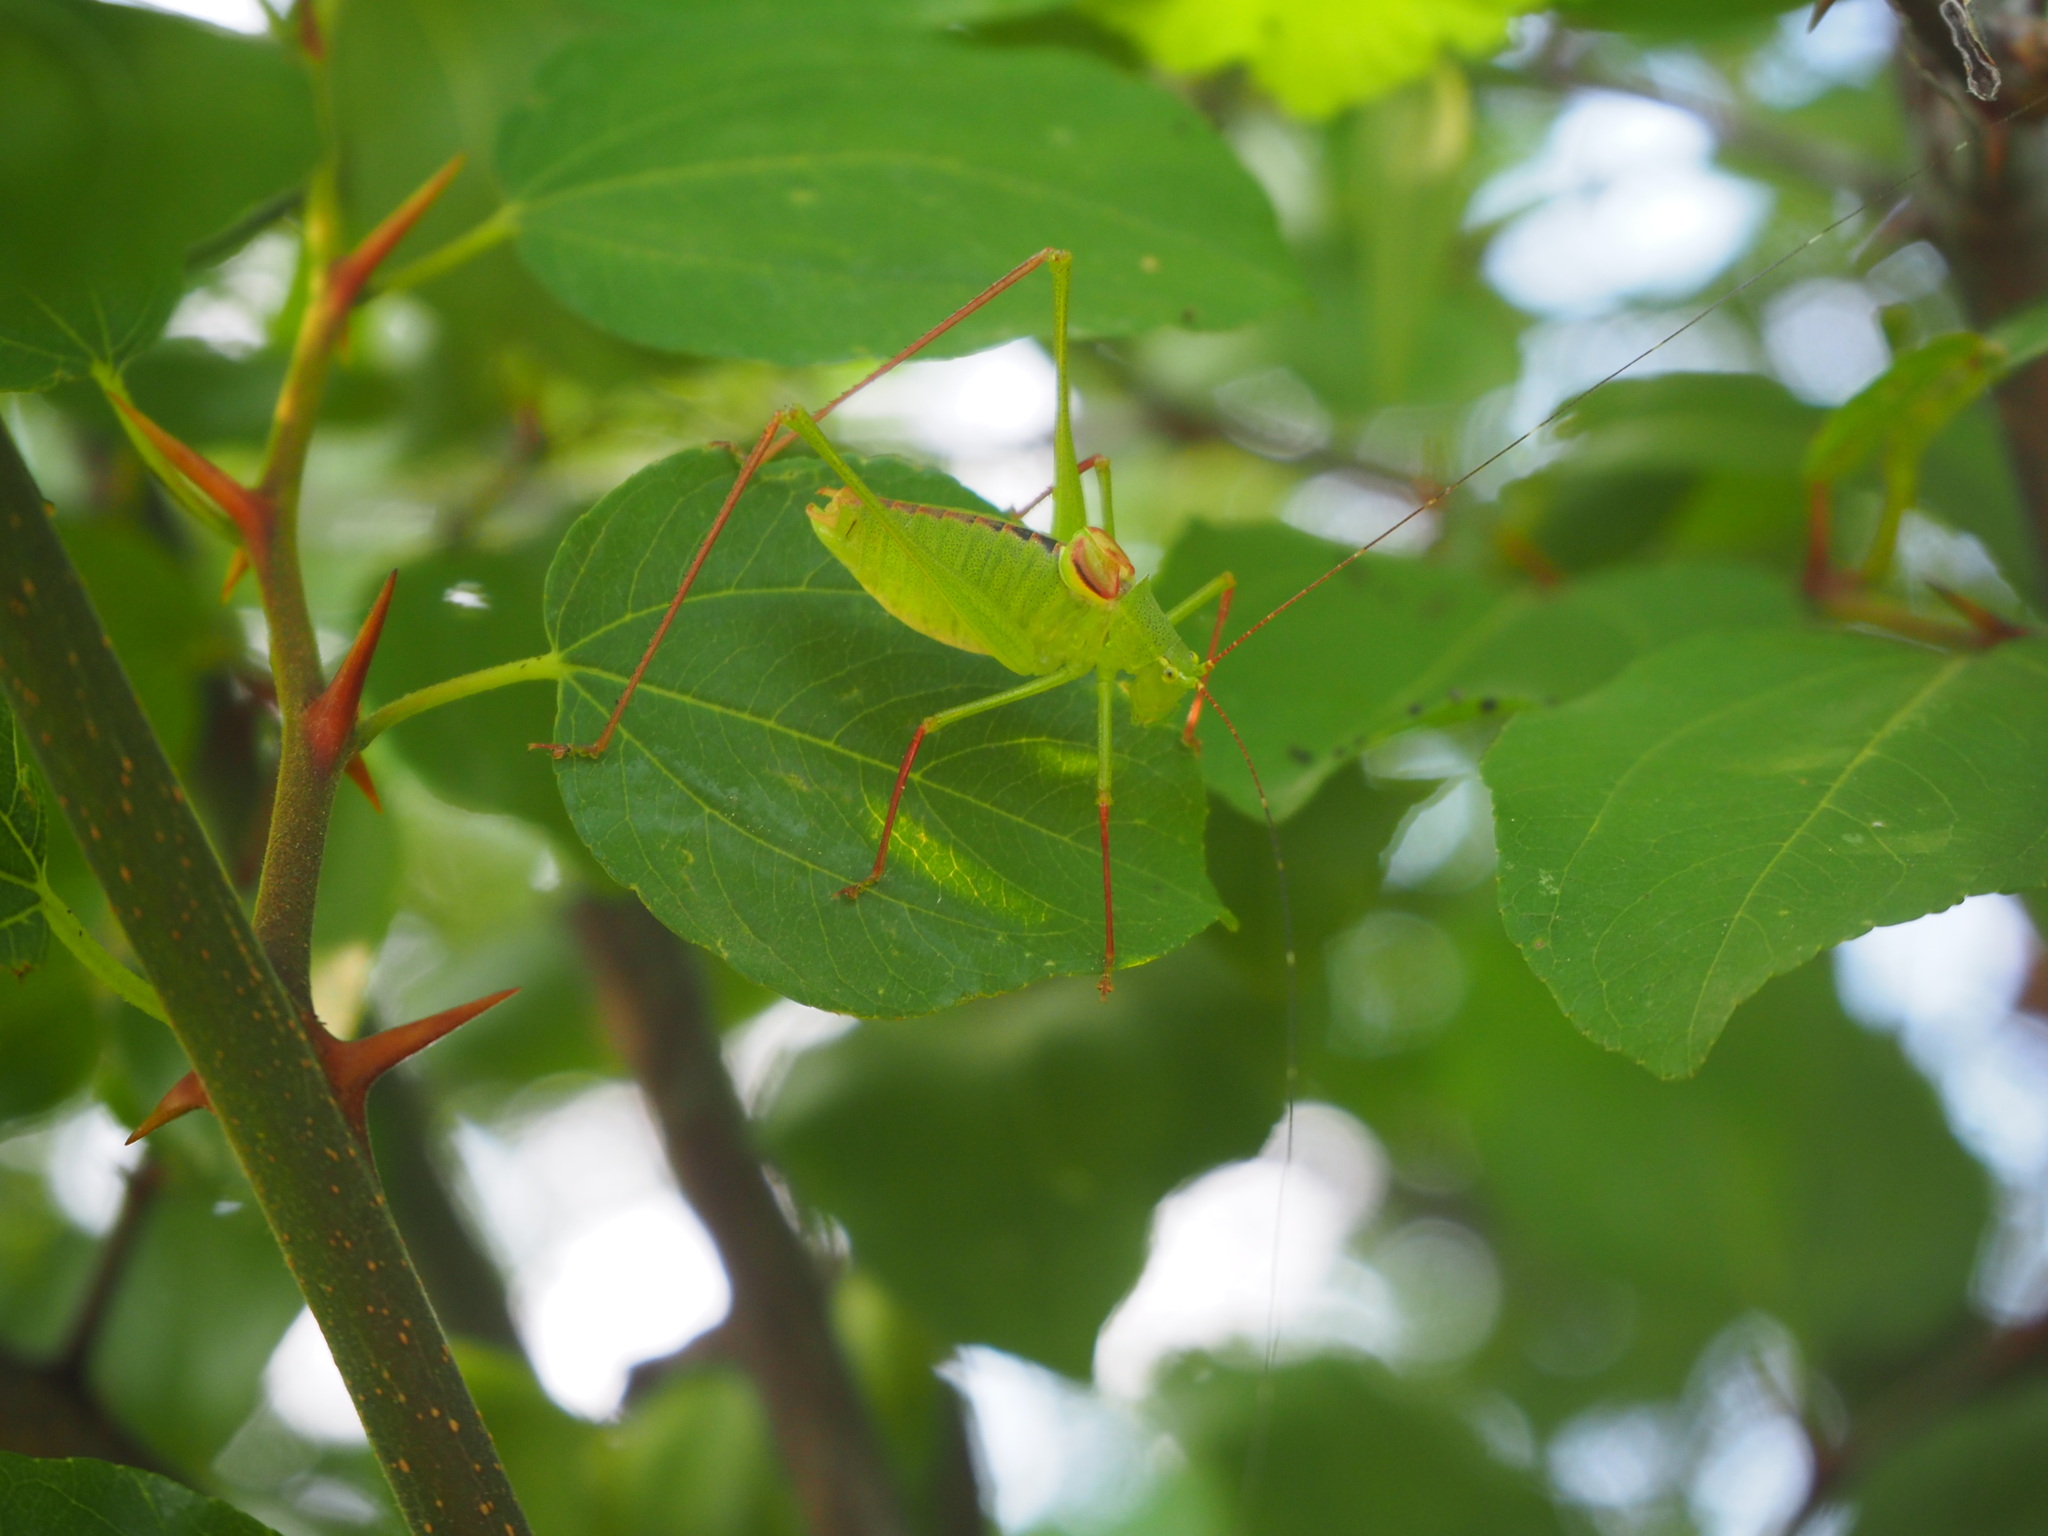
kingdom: Animalia
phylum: Arthropoda
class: Insecta
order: Orthoptera
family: Tettigoniidae
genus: Leptophyes
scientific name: Leptophyes laticauda
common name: Long-tailed speckled bush-cricket
